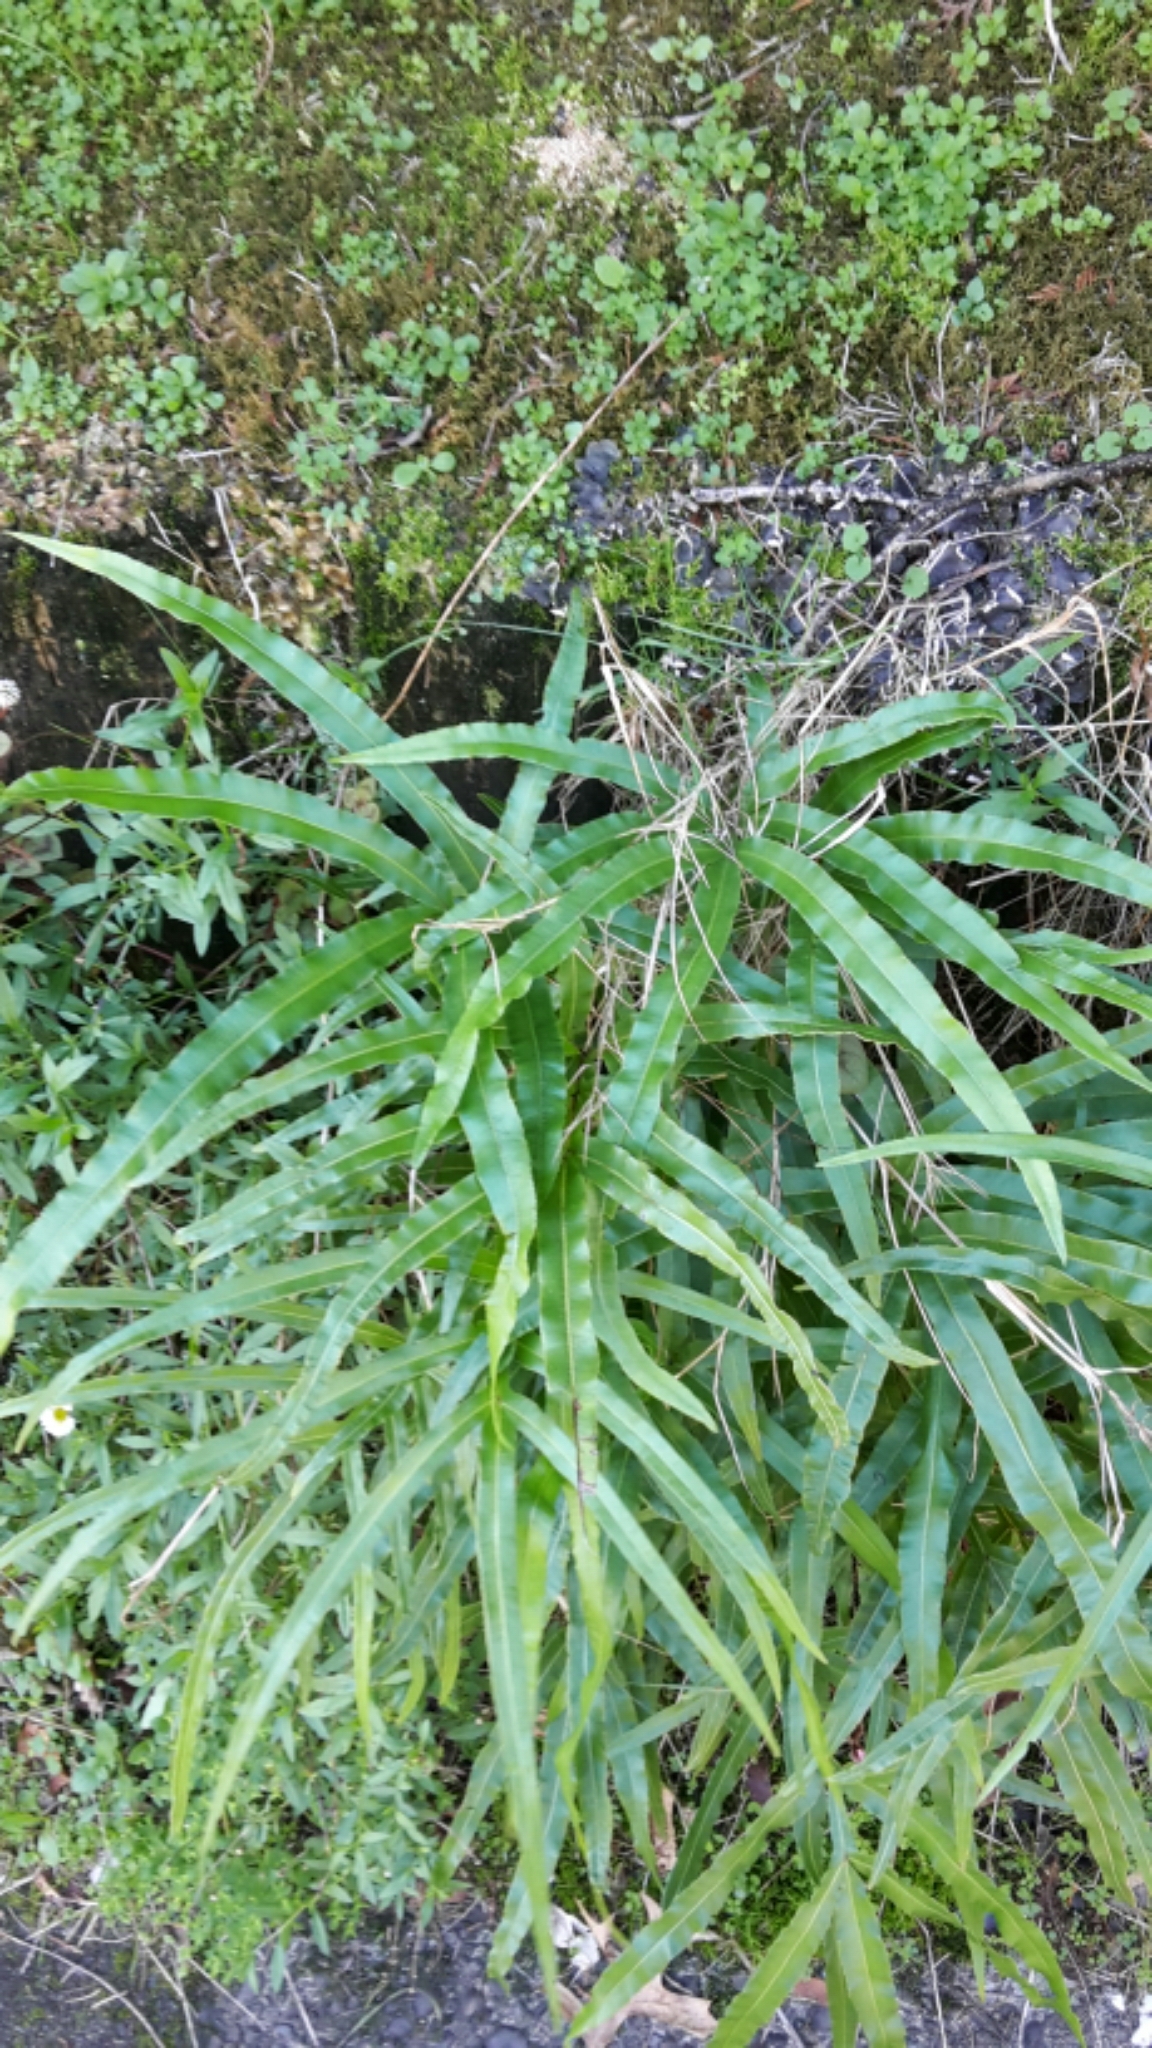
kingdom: Plantae
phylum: Tracheophyta
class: Polypodiopsida
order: Polypodiales
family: Pteridaceae
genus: Pteris
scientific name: Pteris cretica
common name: Ribbon fern
